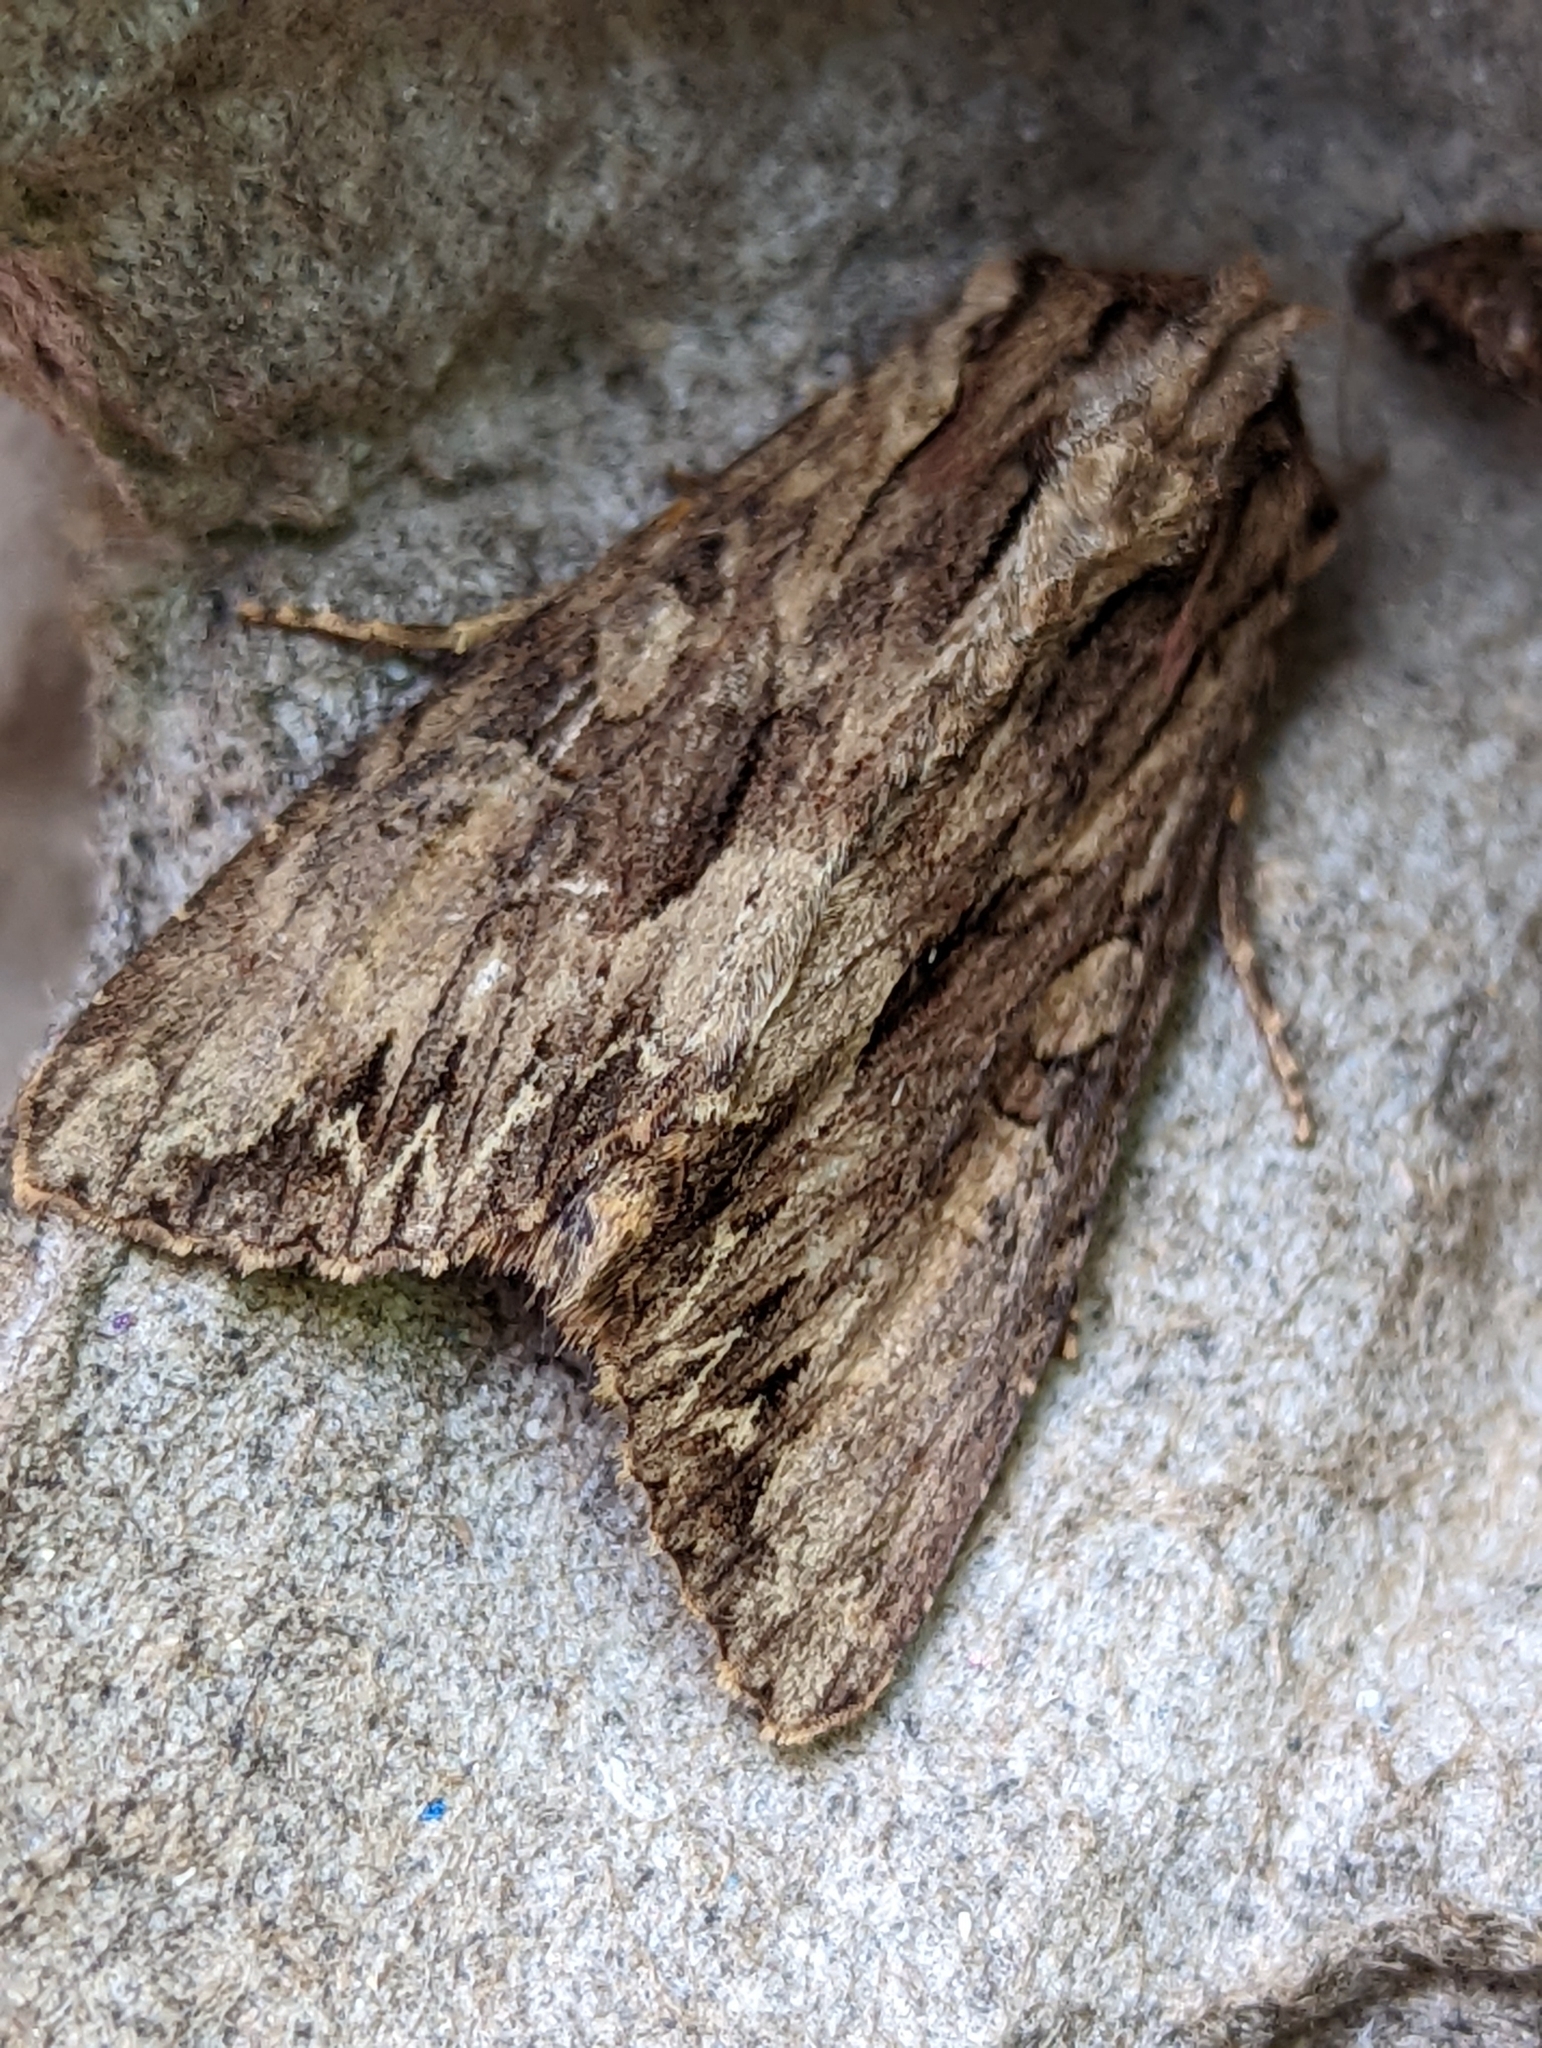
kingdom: Animalia
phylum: Arthropoda
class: Insecta
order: Lepidoptera
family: Noctuidae
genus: Apamea
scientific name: Apamea monoglypha
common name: Dark arches
